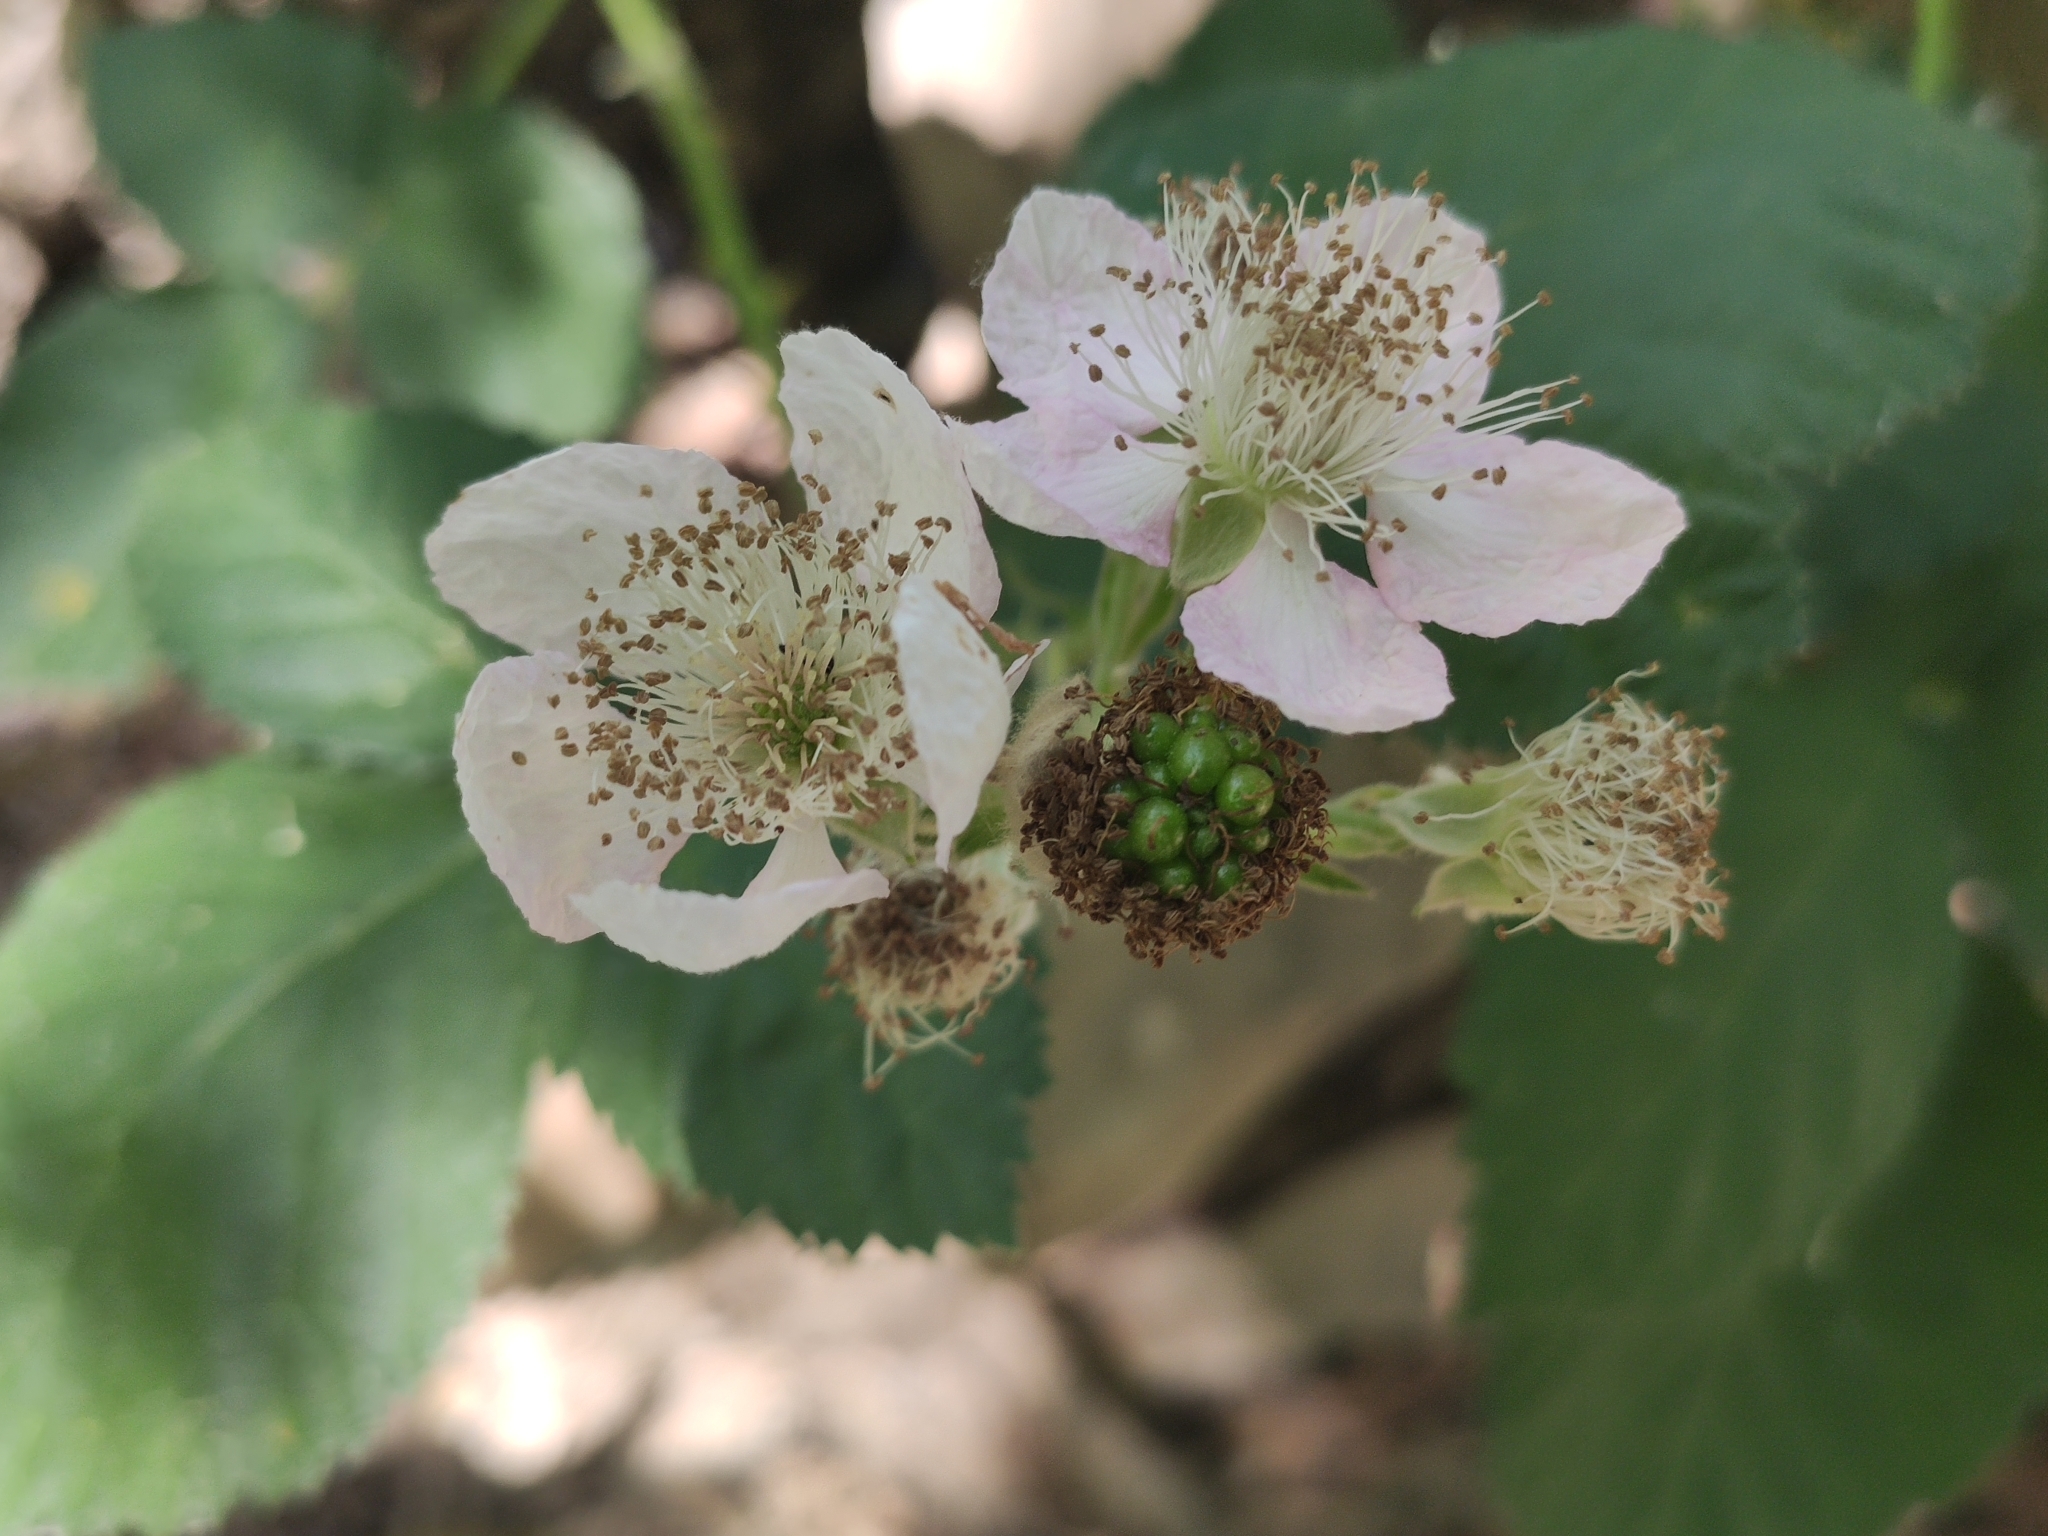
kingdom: Plantae
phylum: Tracheophyta
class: Magnoliopsida
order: Rosales
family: Rosaceae
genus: Rubus
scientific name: Rubus armeniacus
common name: Himalayan blackberry
